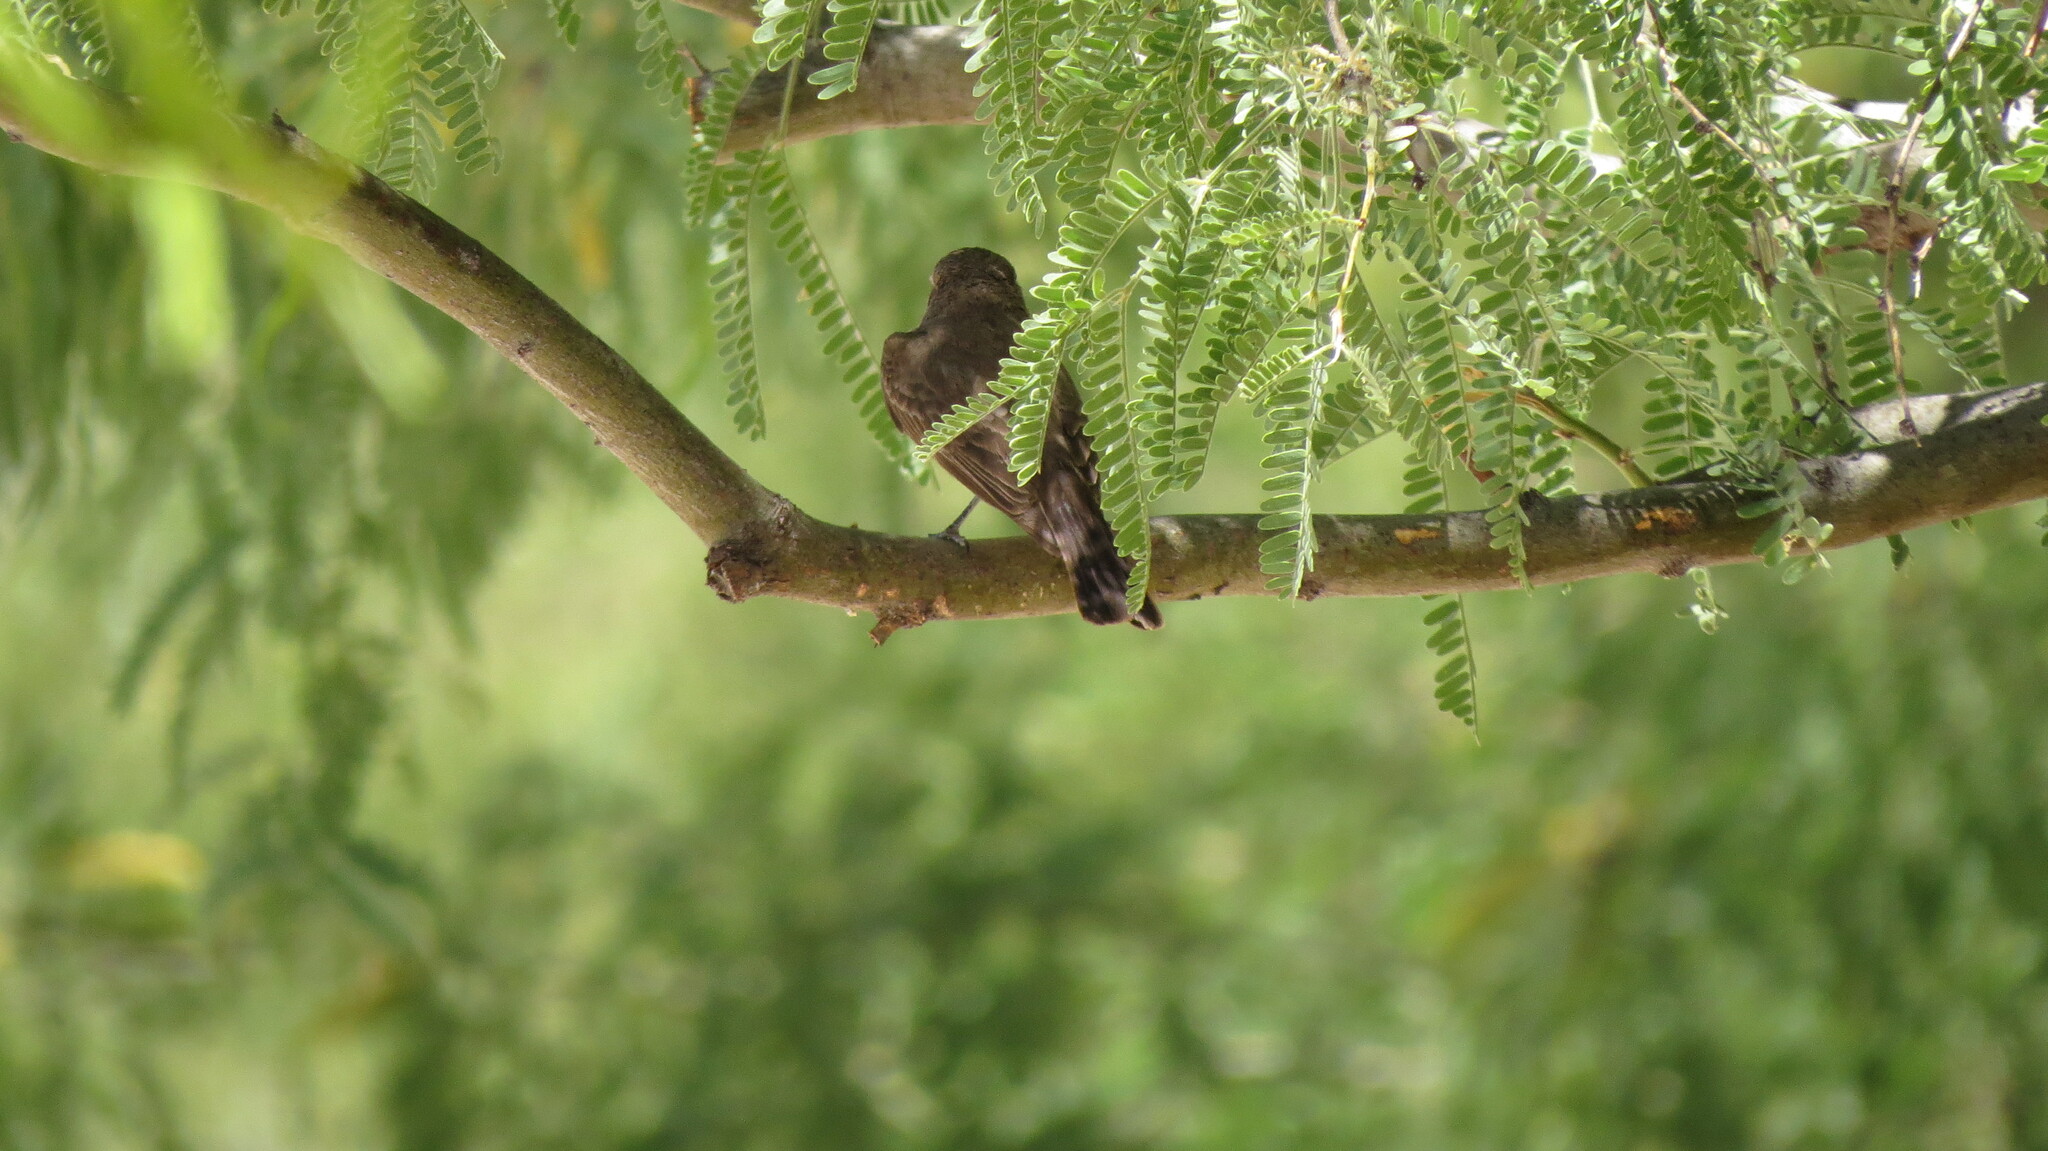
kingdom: Animalia
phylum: Chordata
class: Aves
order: Passeriformes
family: Tyrannidae
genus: Pyrocephalus
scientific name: Pyrocephalus rubinus
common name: Vermilion flycatcher
